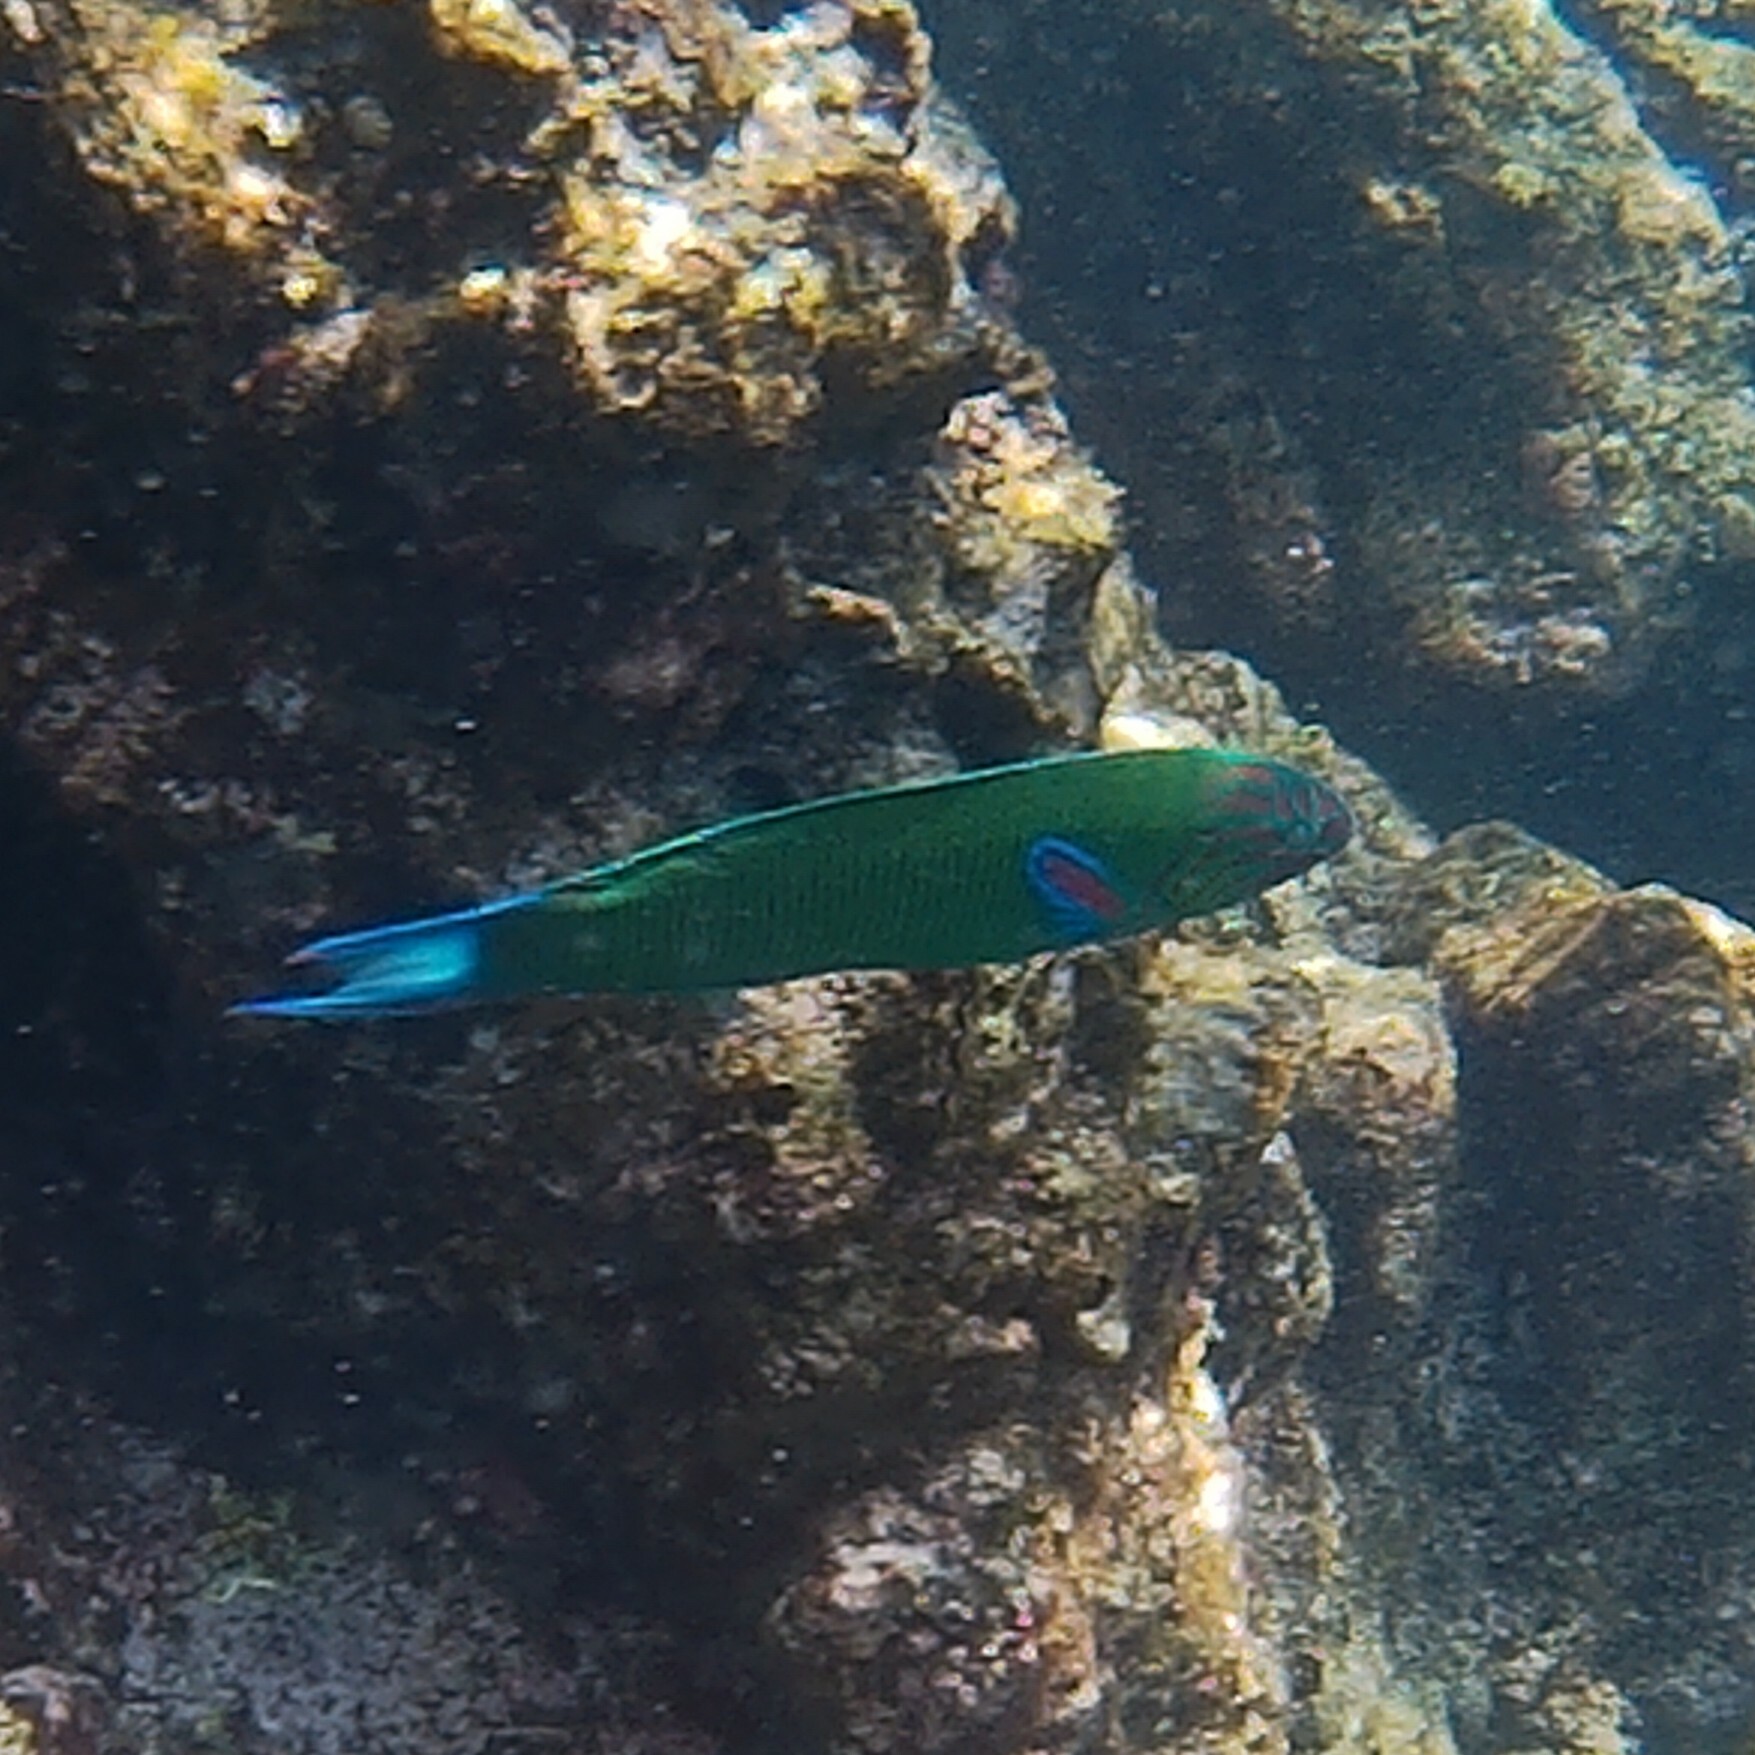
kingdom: Animalia
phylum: Chordata
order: Perciformes
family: Labridae
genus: Thalassoma
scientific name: Thalassoma lunare
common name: Blue wrasse
